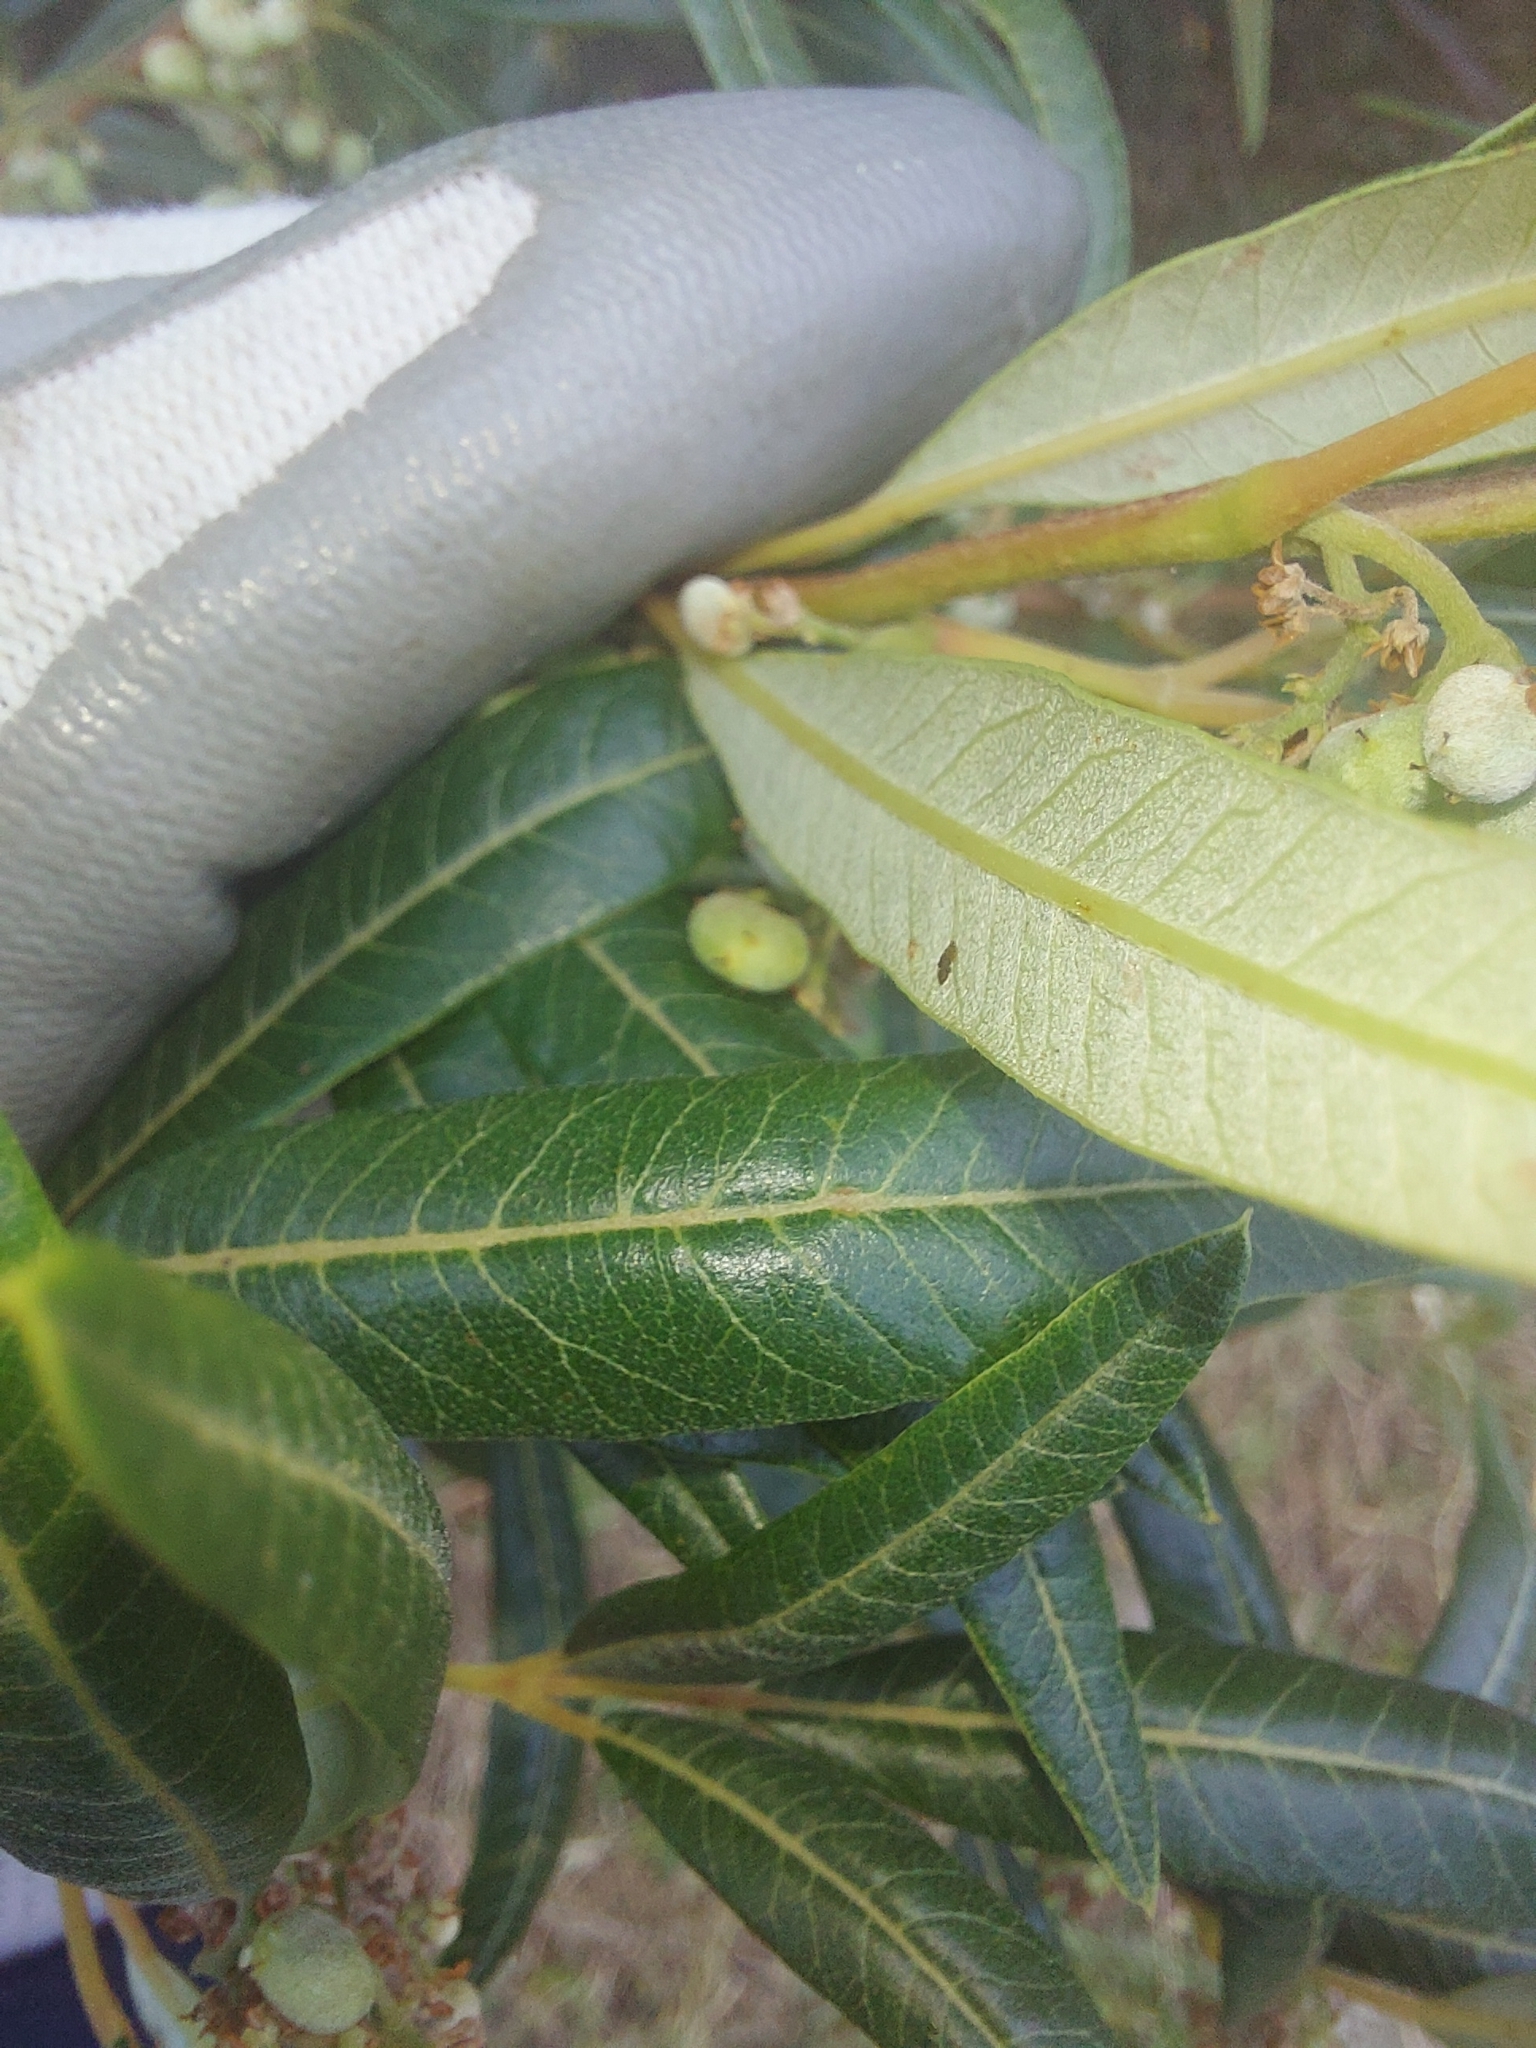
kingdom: Plantae
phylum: Tracheophyta
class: Magnoliopsida
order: Sapindales
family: Anacardiaceae
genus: Searsia
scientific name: Searsia angustifolia
